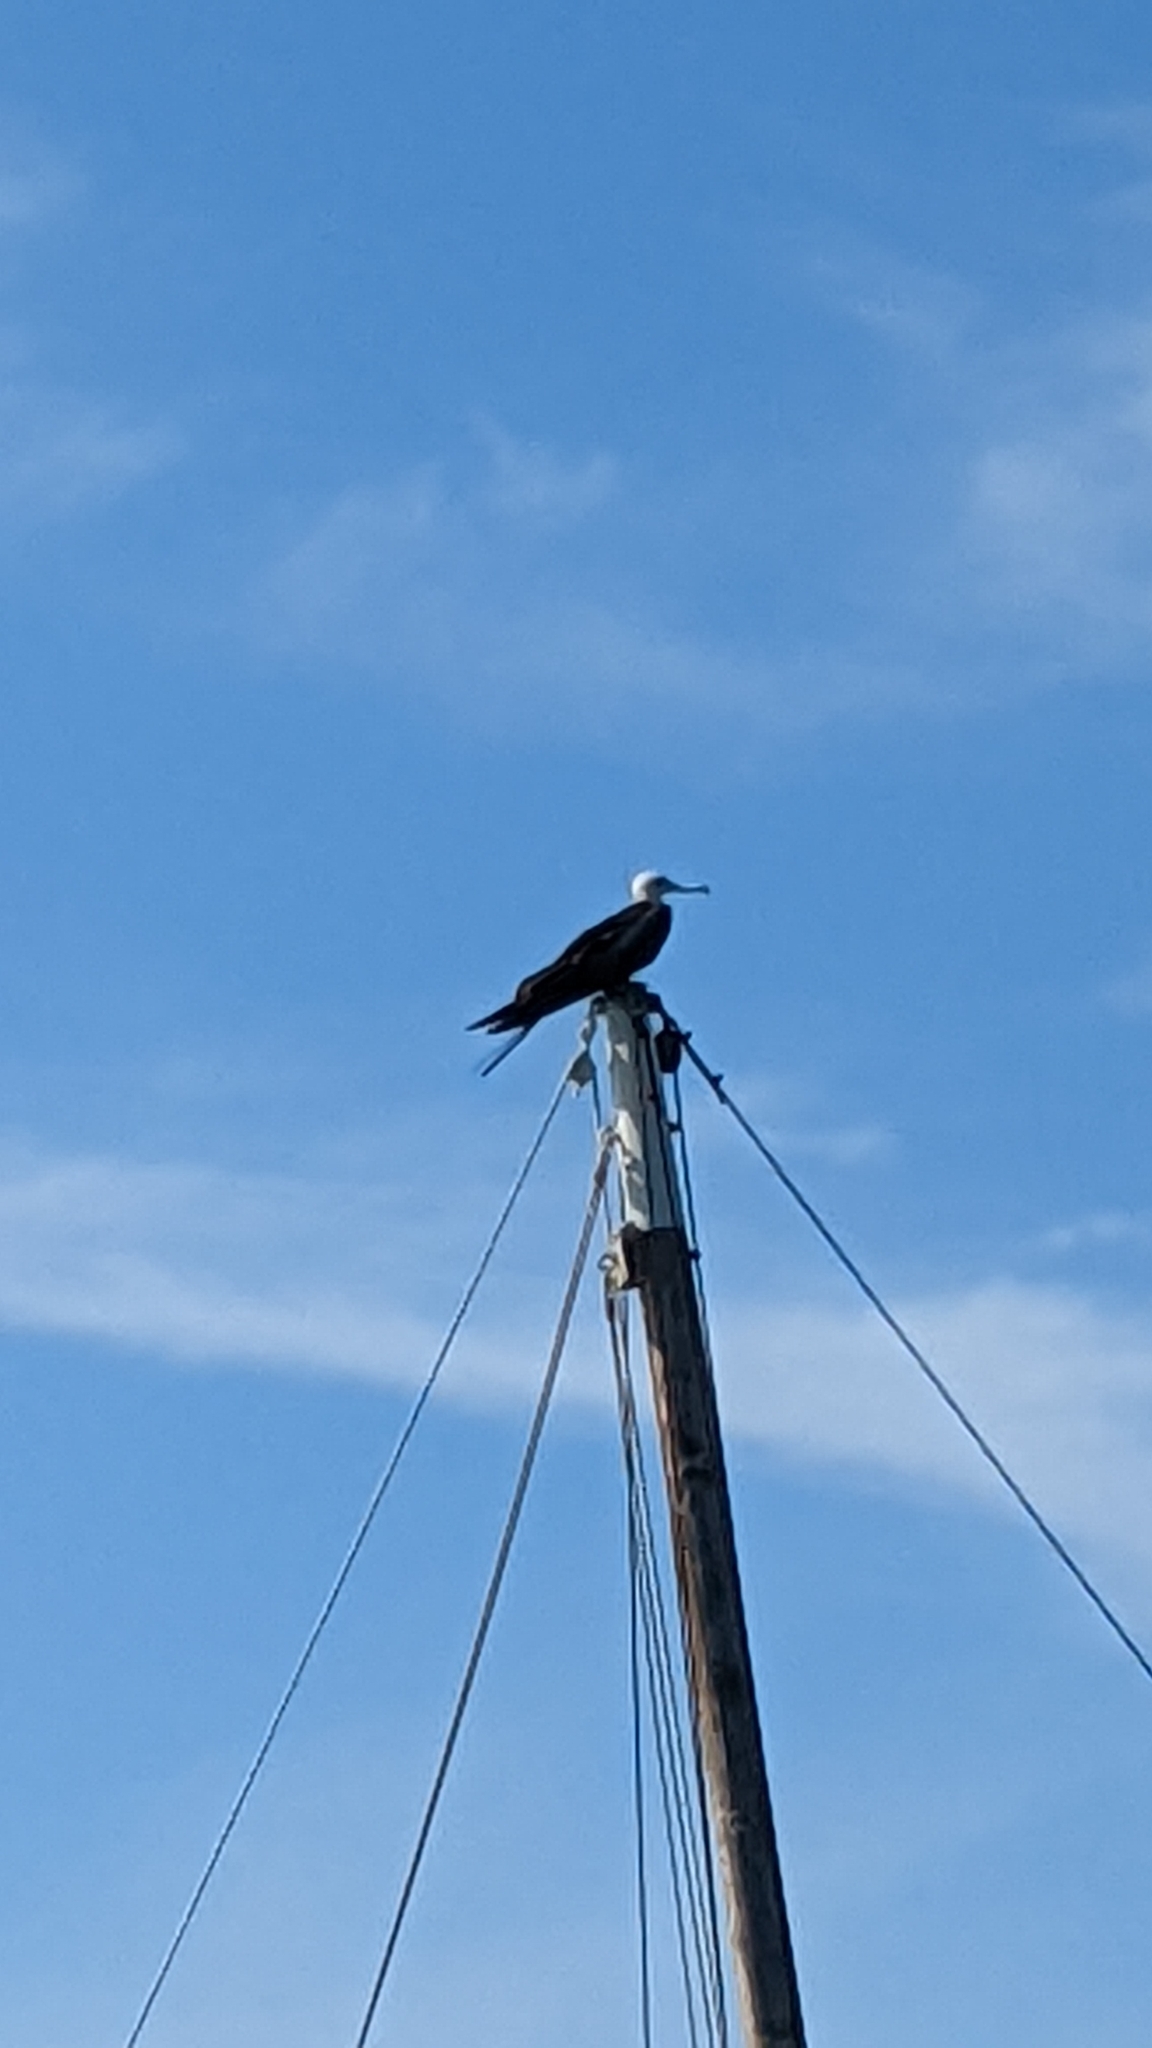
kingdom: Animalia
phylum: Chordata
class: Aves
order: Suliformes
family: Fregatidae
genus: Fregata
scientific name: Fregata magnificens
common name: Magnificent frigatebird
